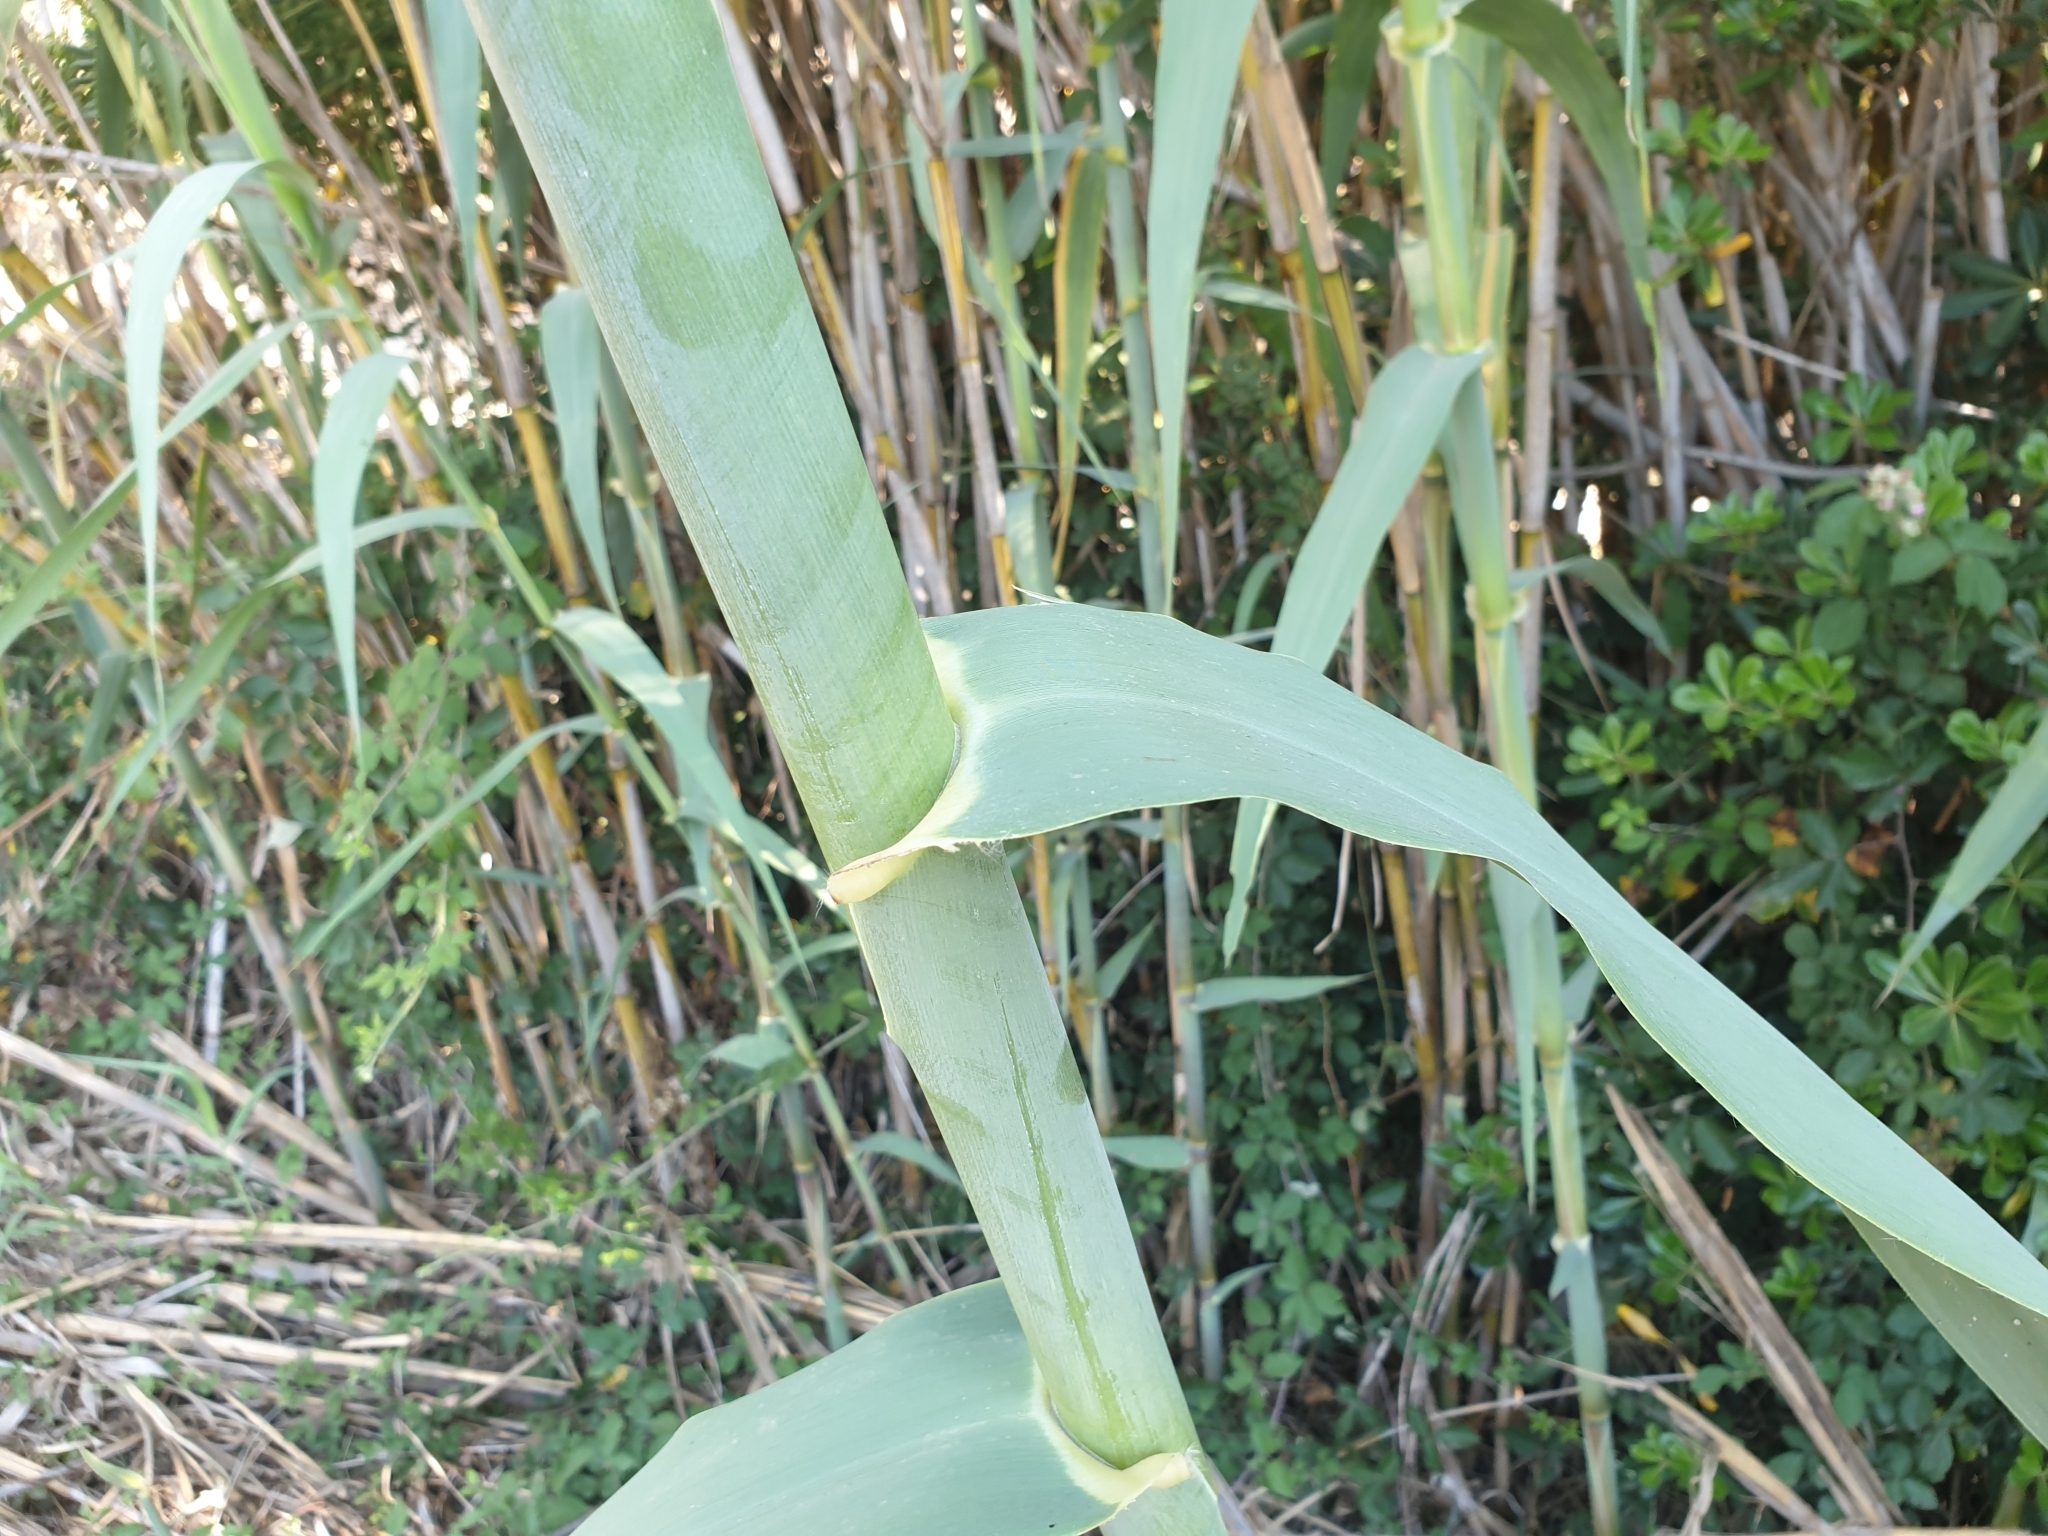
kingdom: Plantae
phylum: Tracheophyta
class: Liliopsida
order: Poales
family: Poaceae
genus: Arundo
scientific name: Arundo donax
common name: Giant reed
